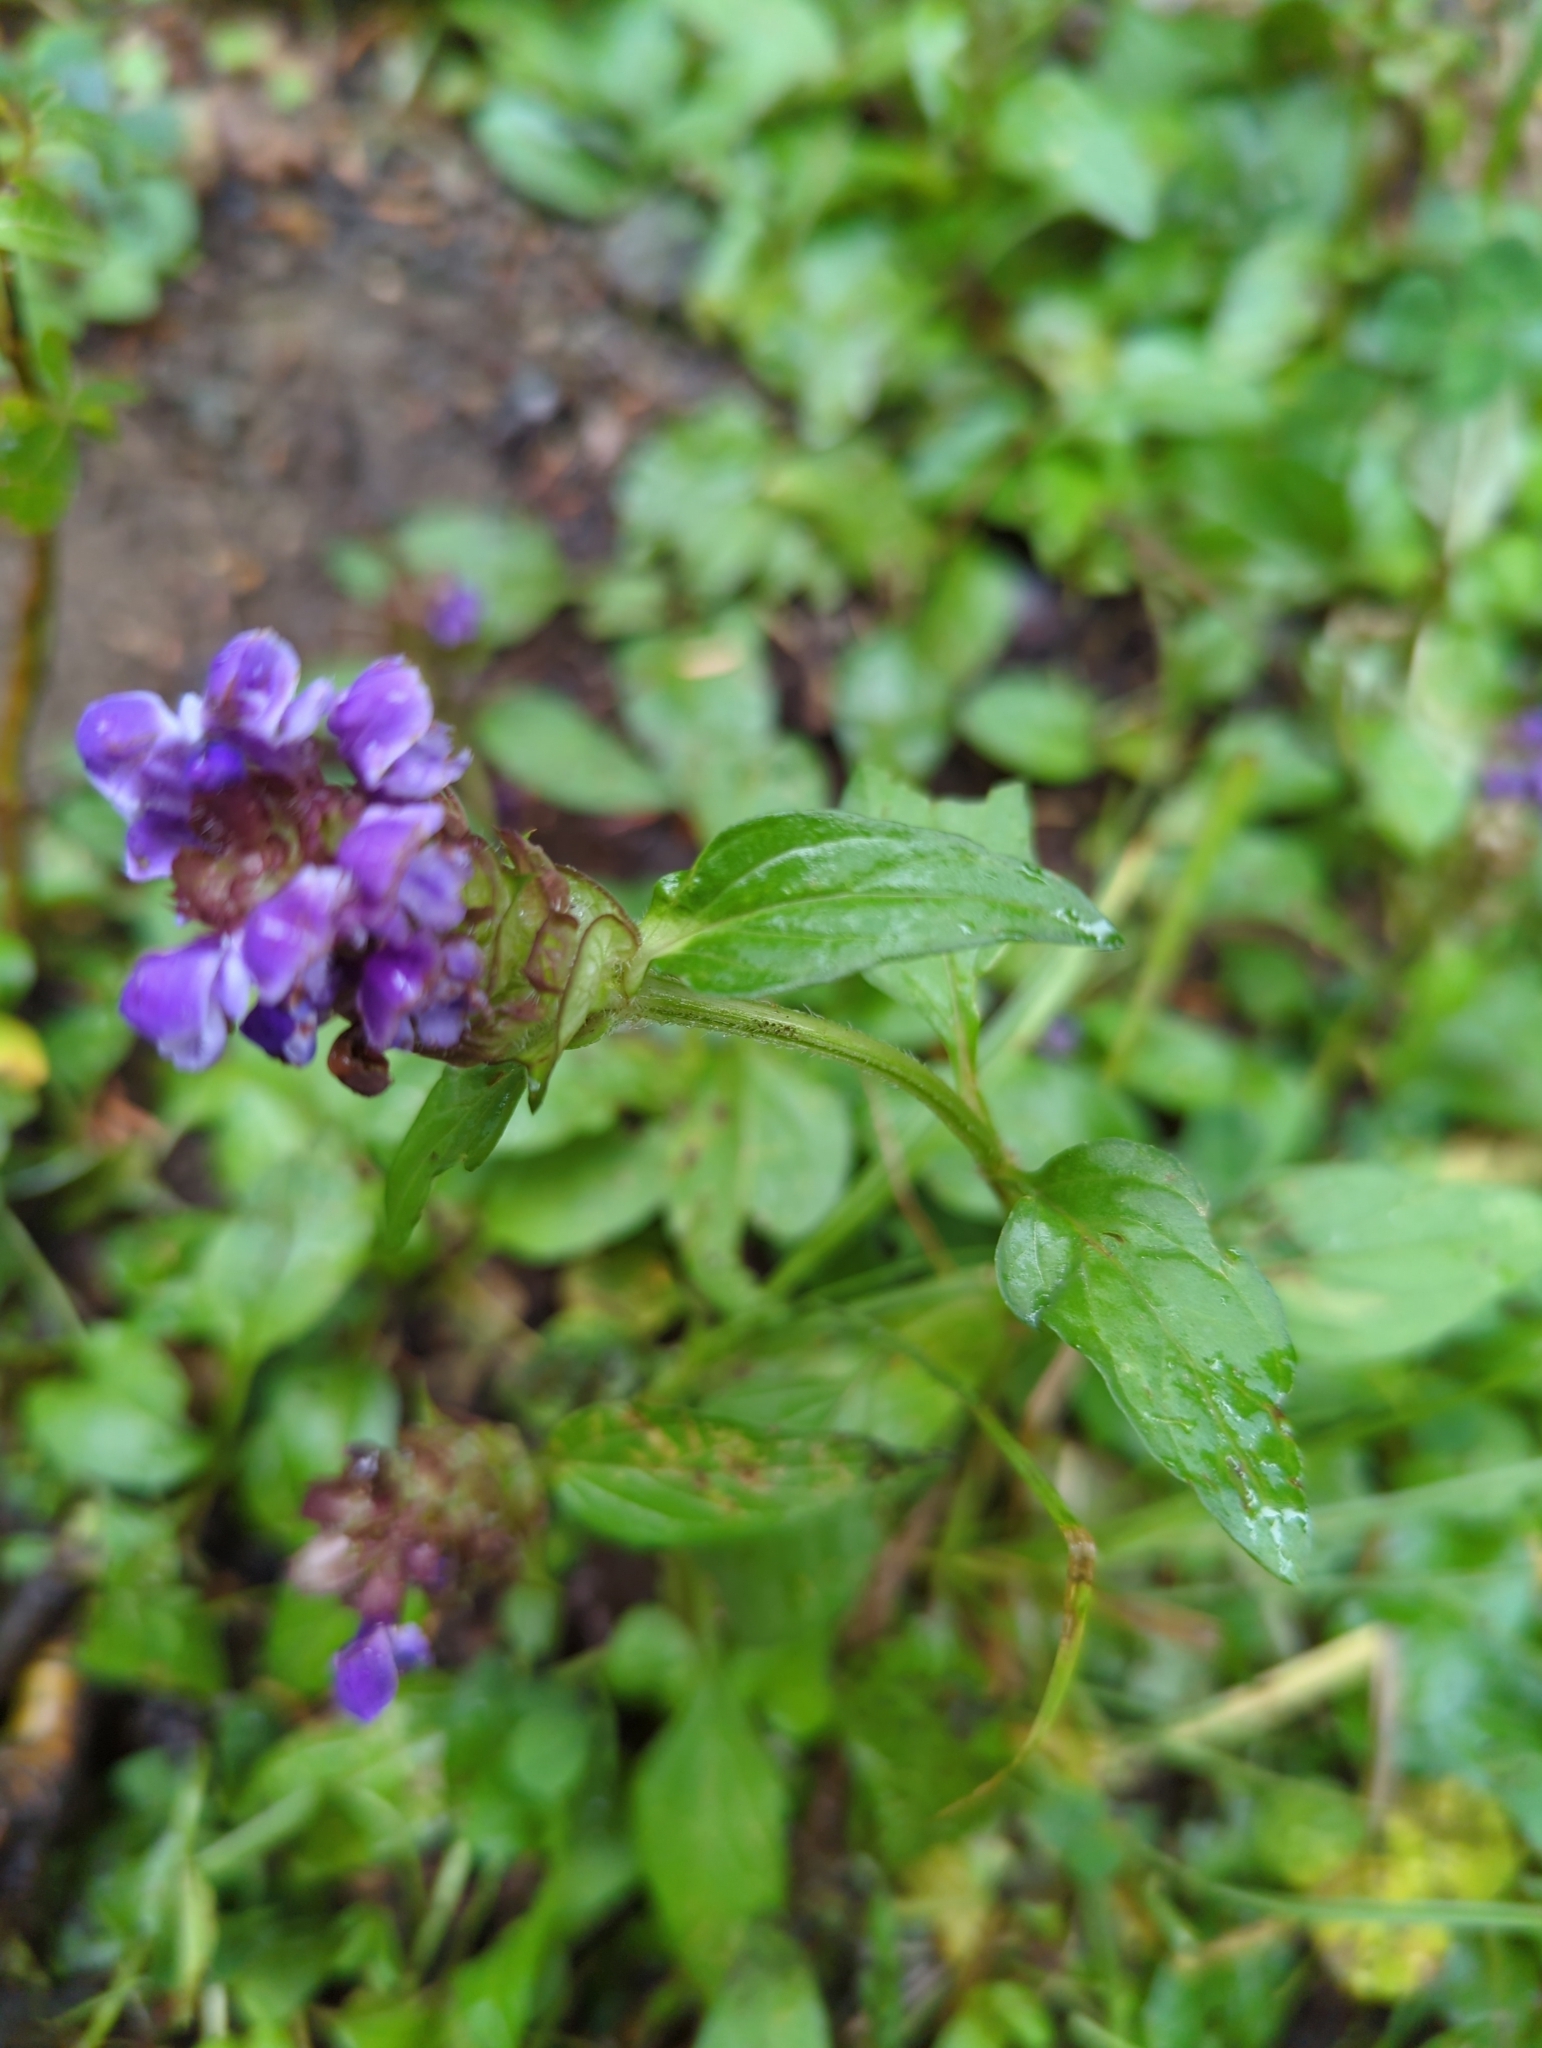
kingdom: Plantae
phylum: Tracheophyta
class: Magnoliopsida
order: Lamiales
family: Lamiaceae
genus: Prunella
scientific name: Prunella vulgaris
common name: Heal-all
